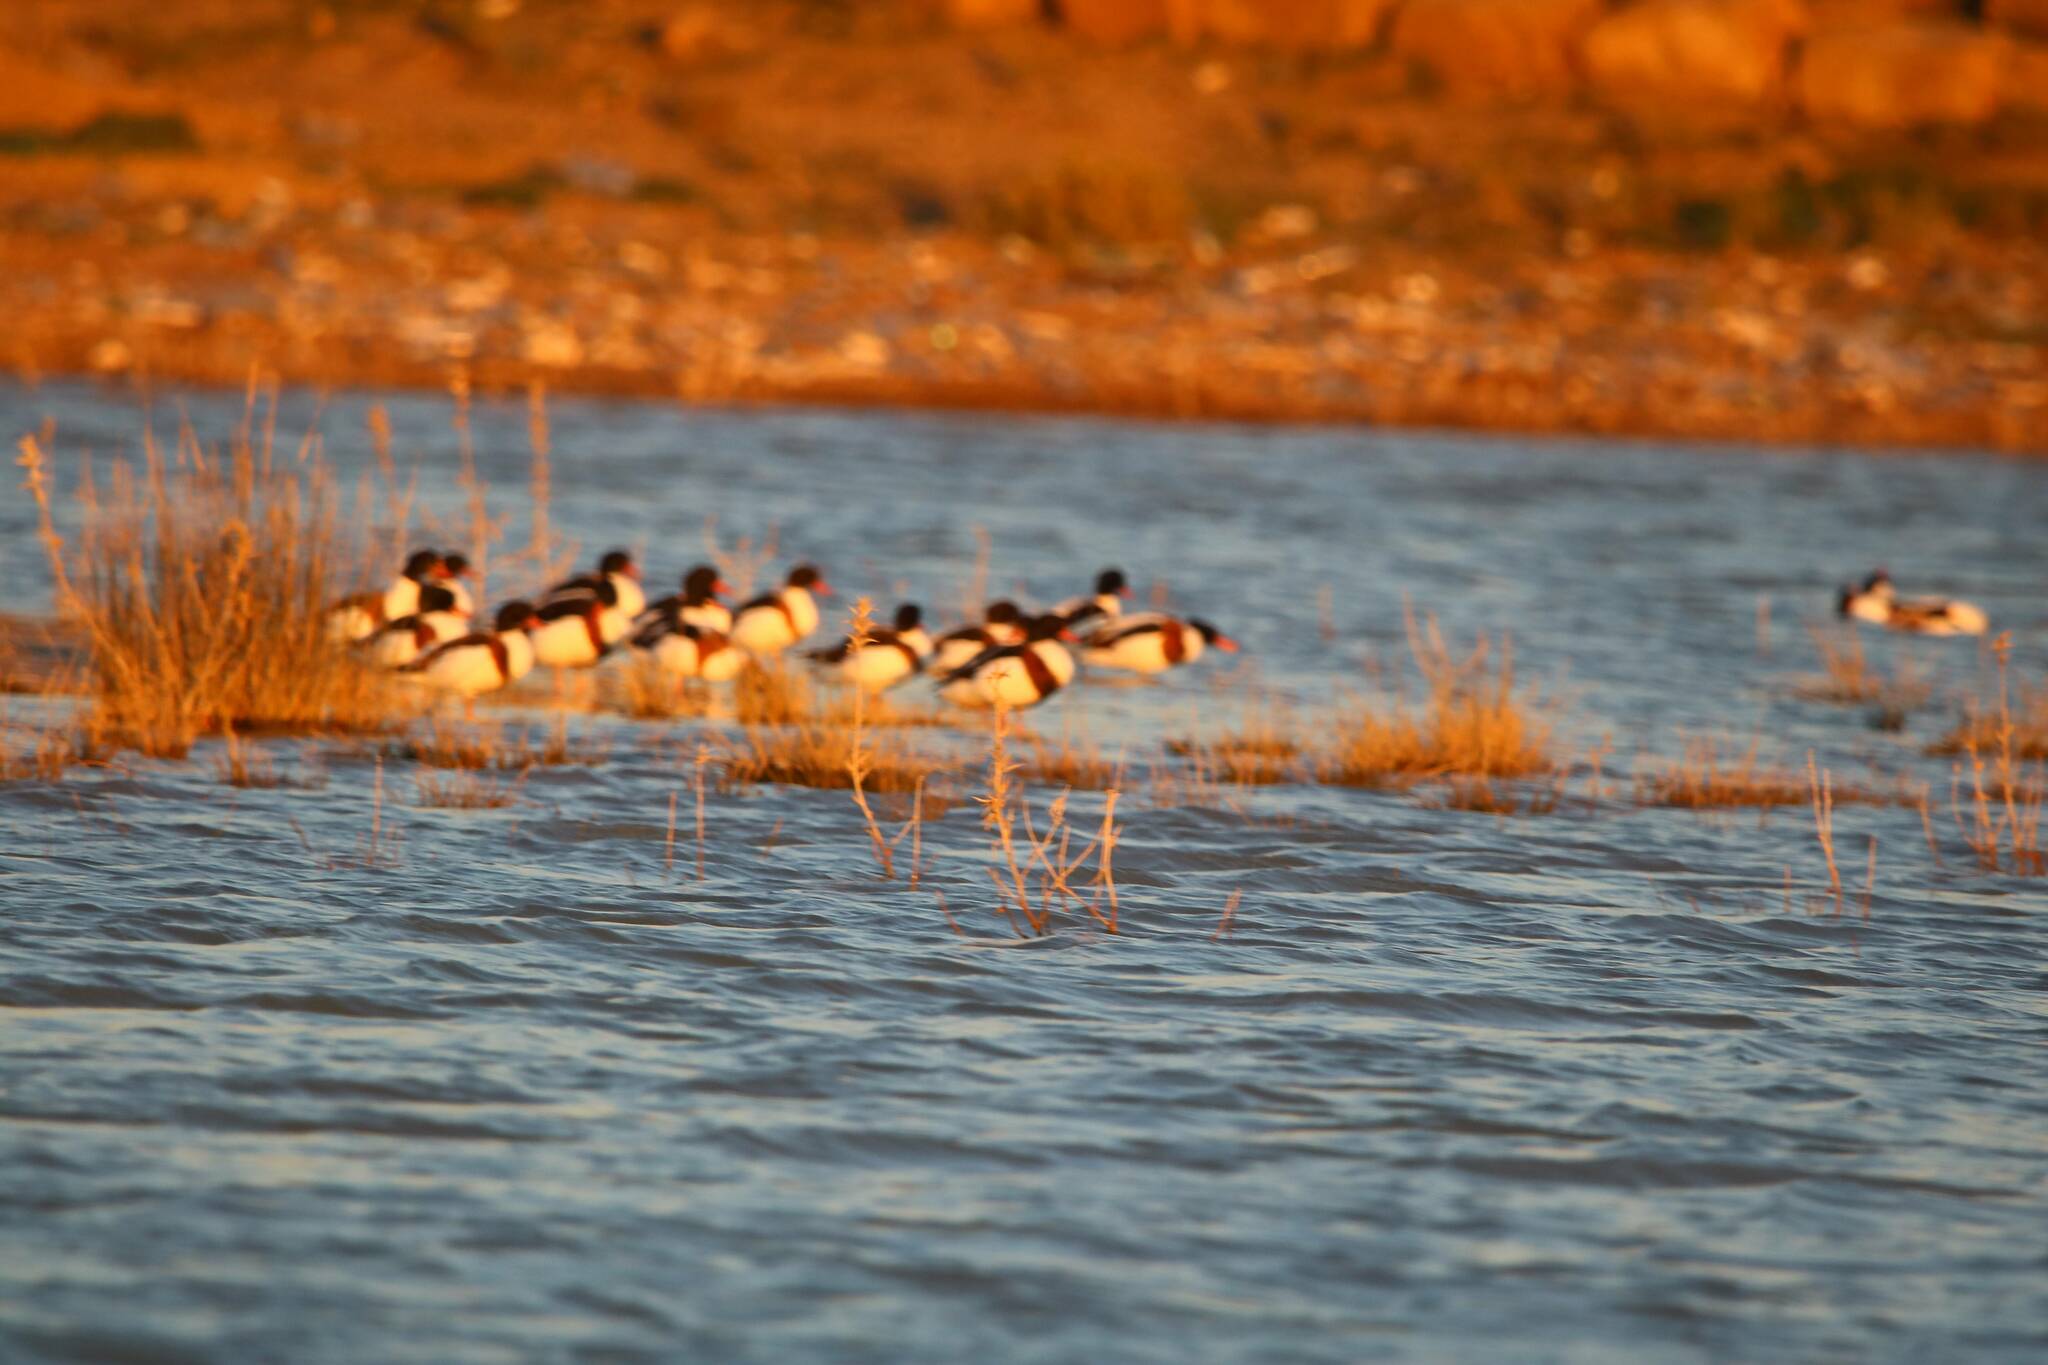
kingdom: Animalia
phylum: Chordata
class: Aves
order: Anseriformes
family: Anatidae
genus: Tadorna
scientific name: Tadorna tadorna
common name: Common shelduck
